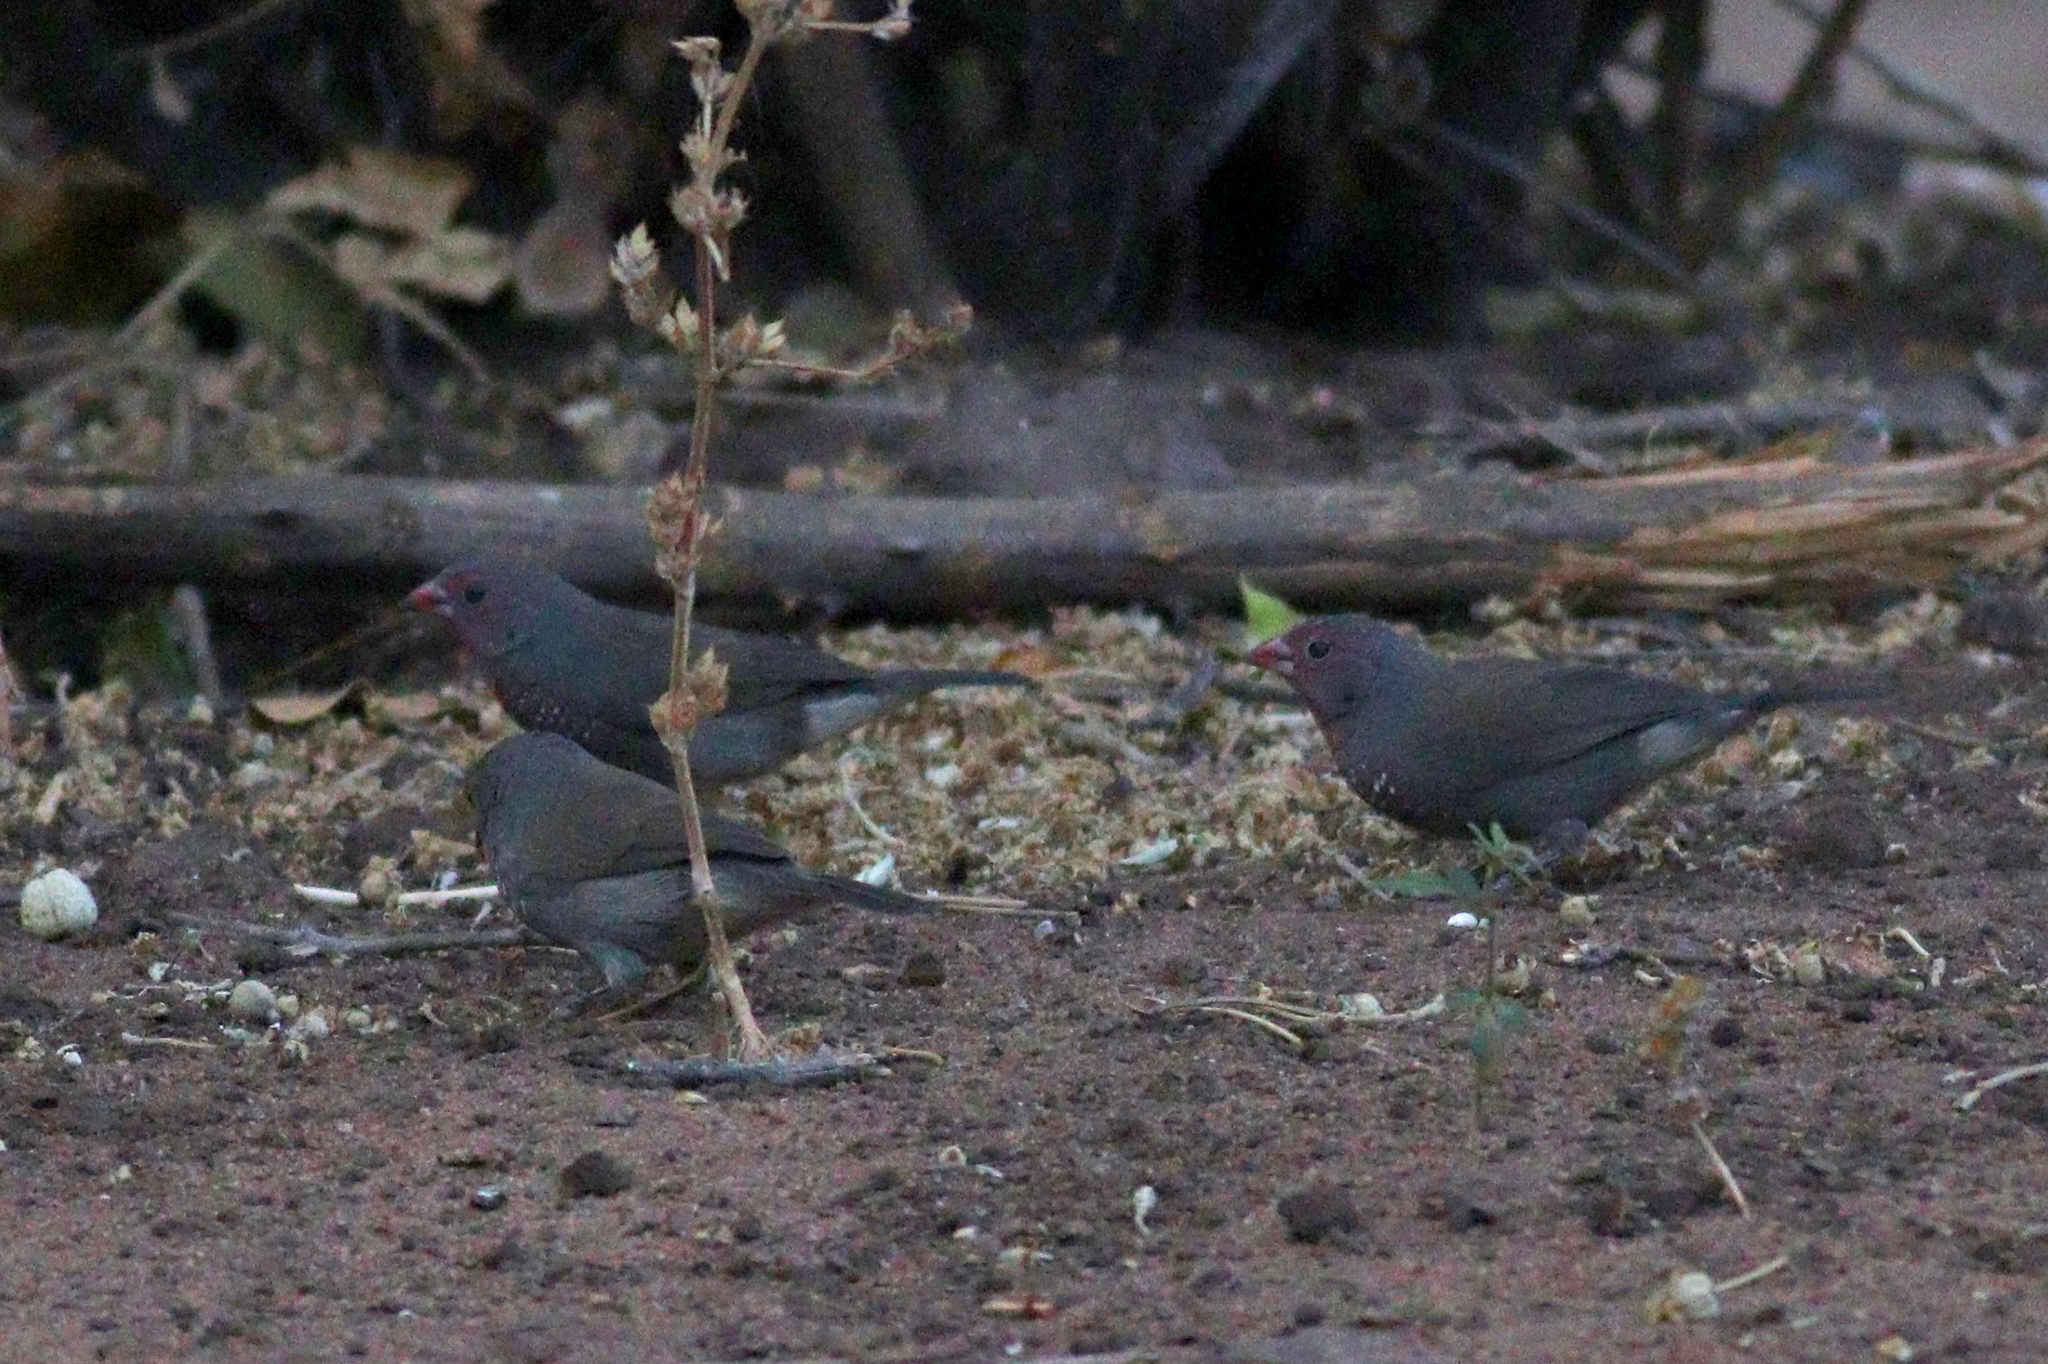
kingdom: Animalia
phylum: Chordata
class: Aves
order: Passeriformes
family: Estrildidae
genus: Lagonosticta
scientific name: Lagonosticta nitidula
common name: Brown firefinch
